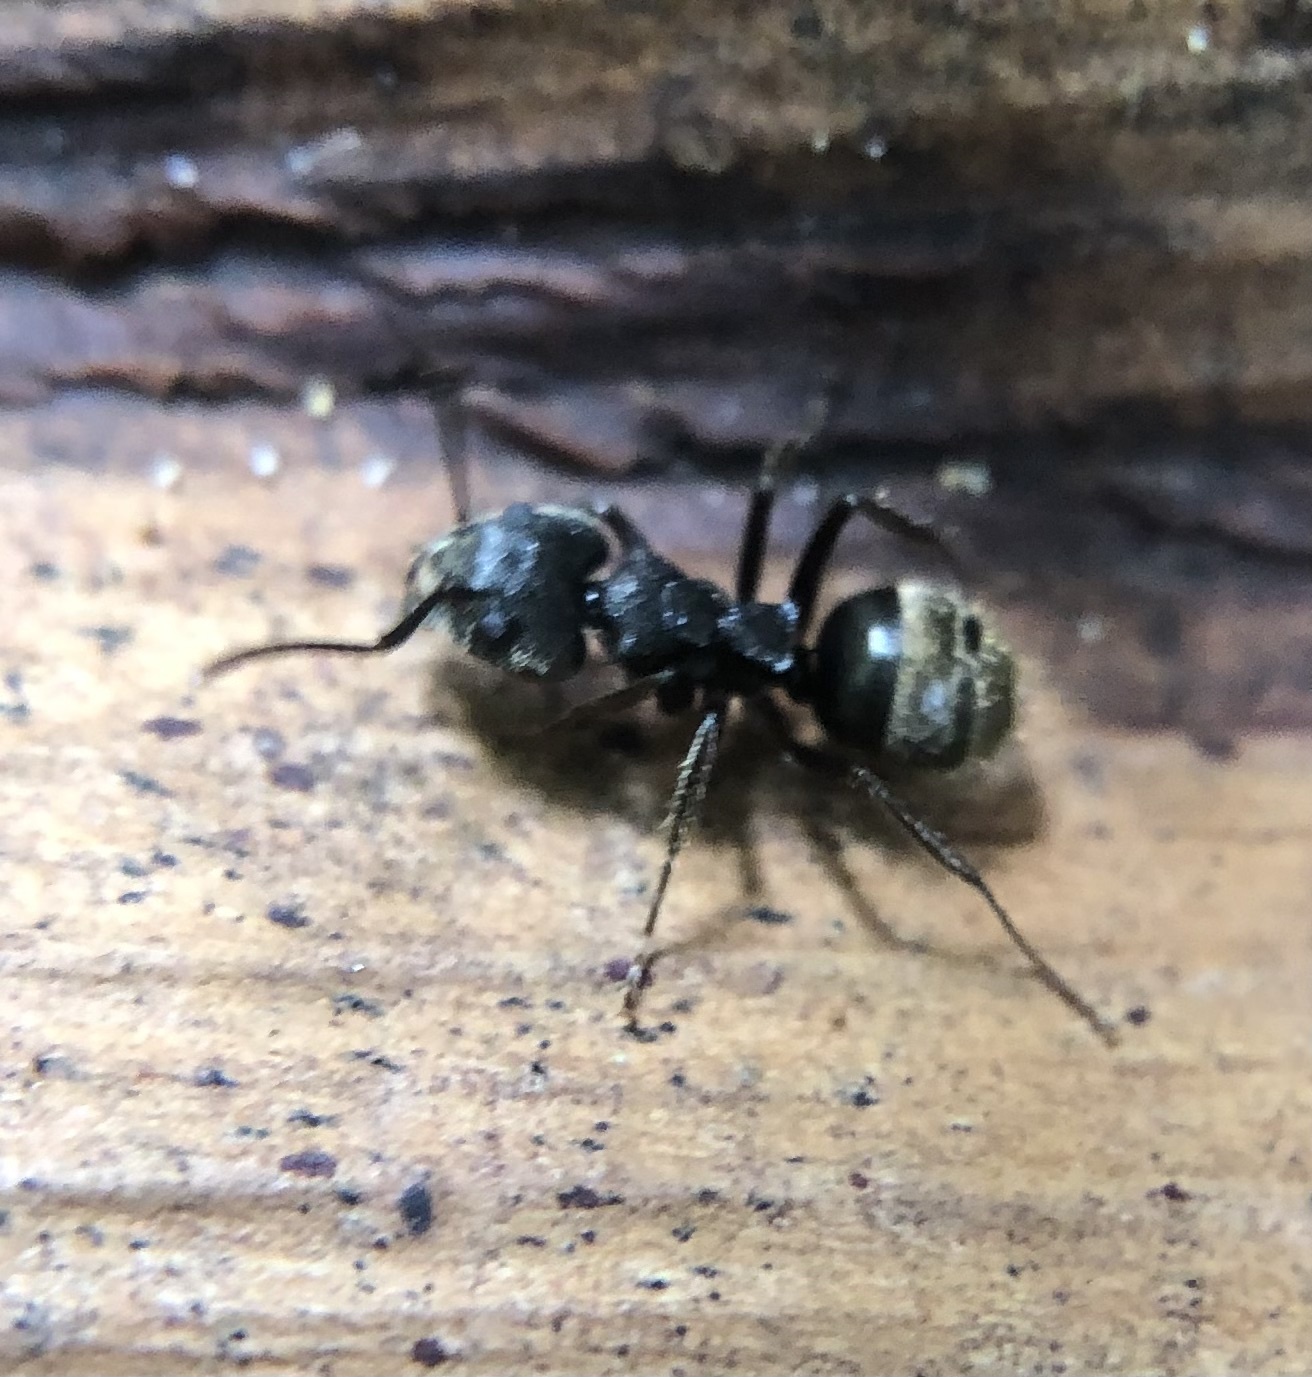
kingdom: Animalia
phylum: Arthropoda
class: Insecta
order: Hymenoptera
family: Formicidae
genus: Dolichoderus
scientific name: Dolichoderus bispinosus
